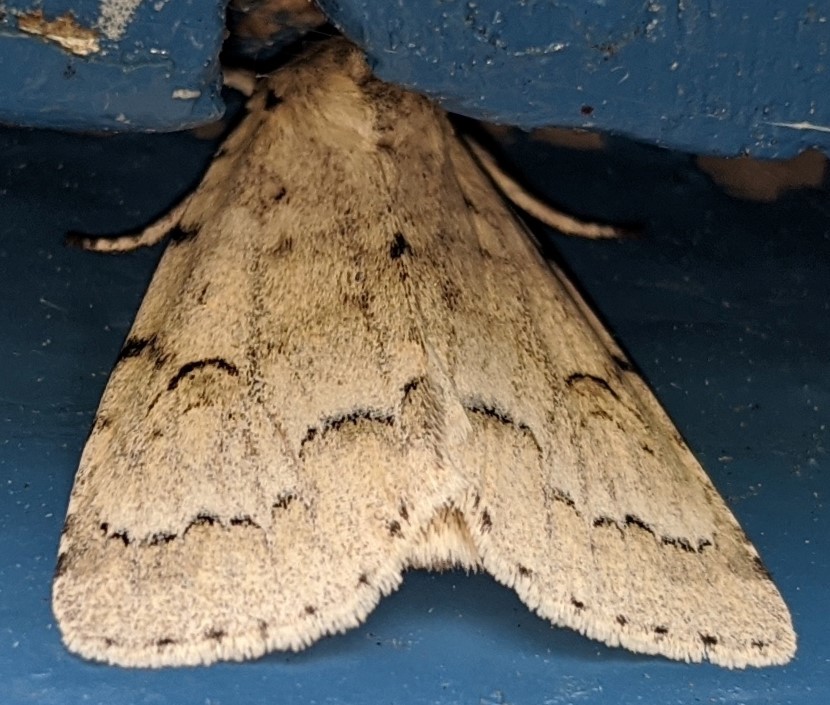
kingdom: Animalia
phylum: Arthropoda
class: Insecta
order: Lepidoptera
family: Noctuidae
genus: Acronicta
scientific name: Acronicta innotata
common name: Unmarked dagger
